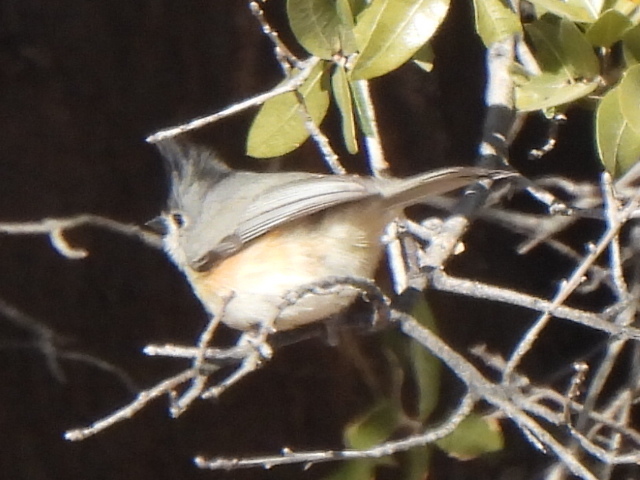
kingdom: Animalia
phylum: Chordata
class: Aves
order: Passeriformes
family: Paridae
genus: Baeolophus
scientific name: Baeolophus atricristatus
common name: Black-crested titmouse
